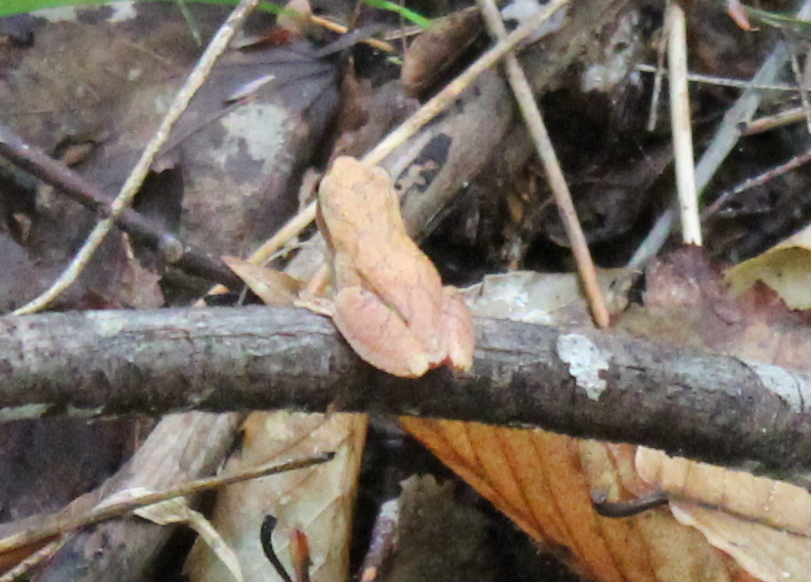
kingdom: Animalia
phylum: Chordata
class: Amphibia
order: Anura
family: Hylidae
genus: Pseudacris
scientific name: Pseudacris crucifer
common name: Spring peeper
